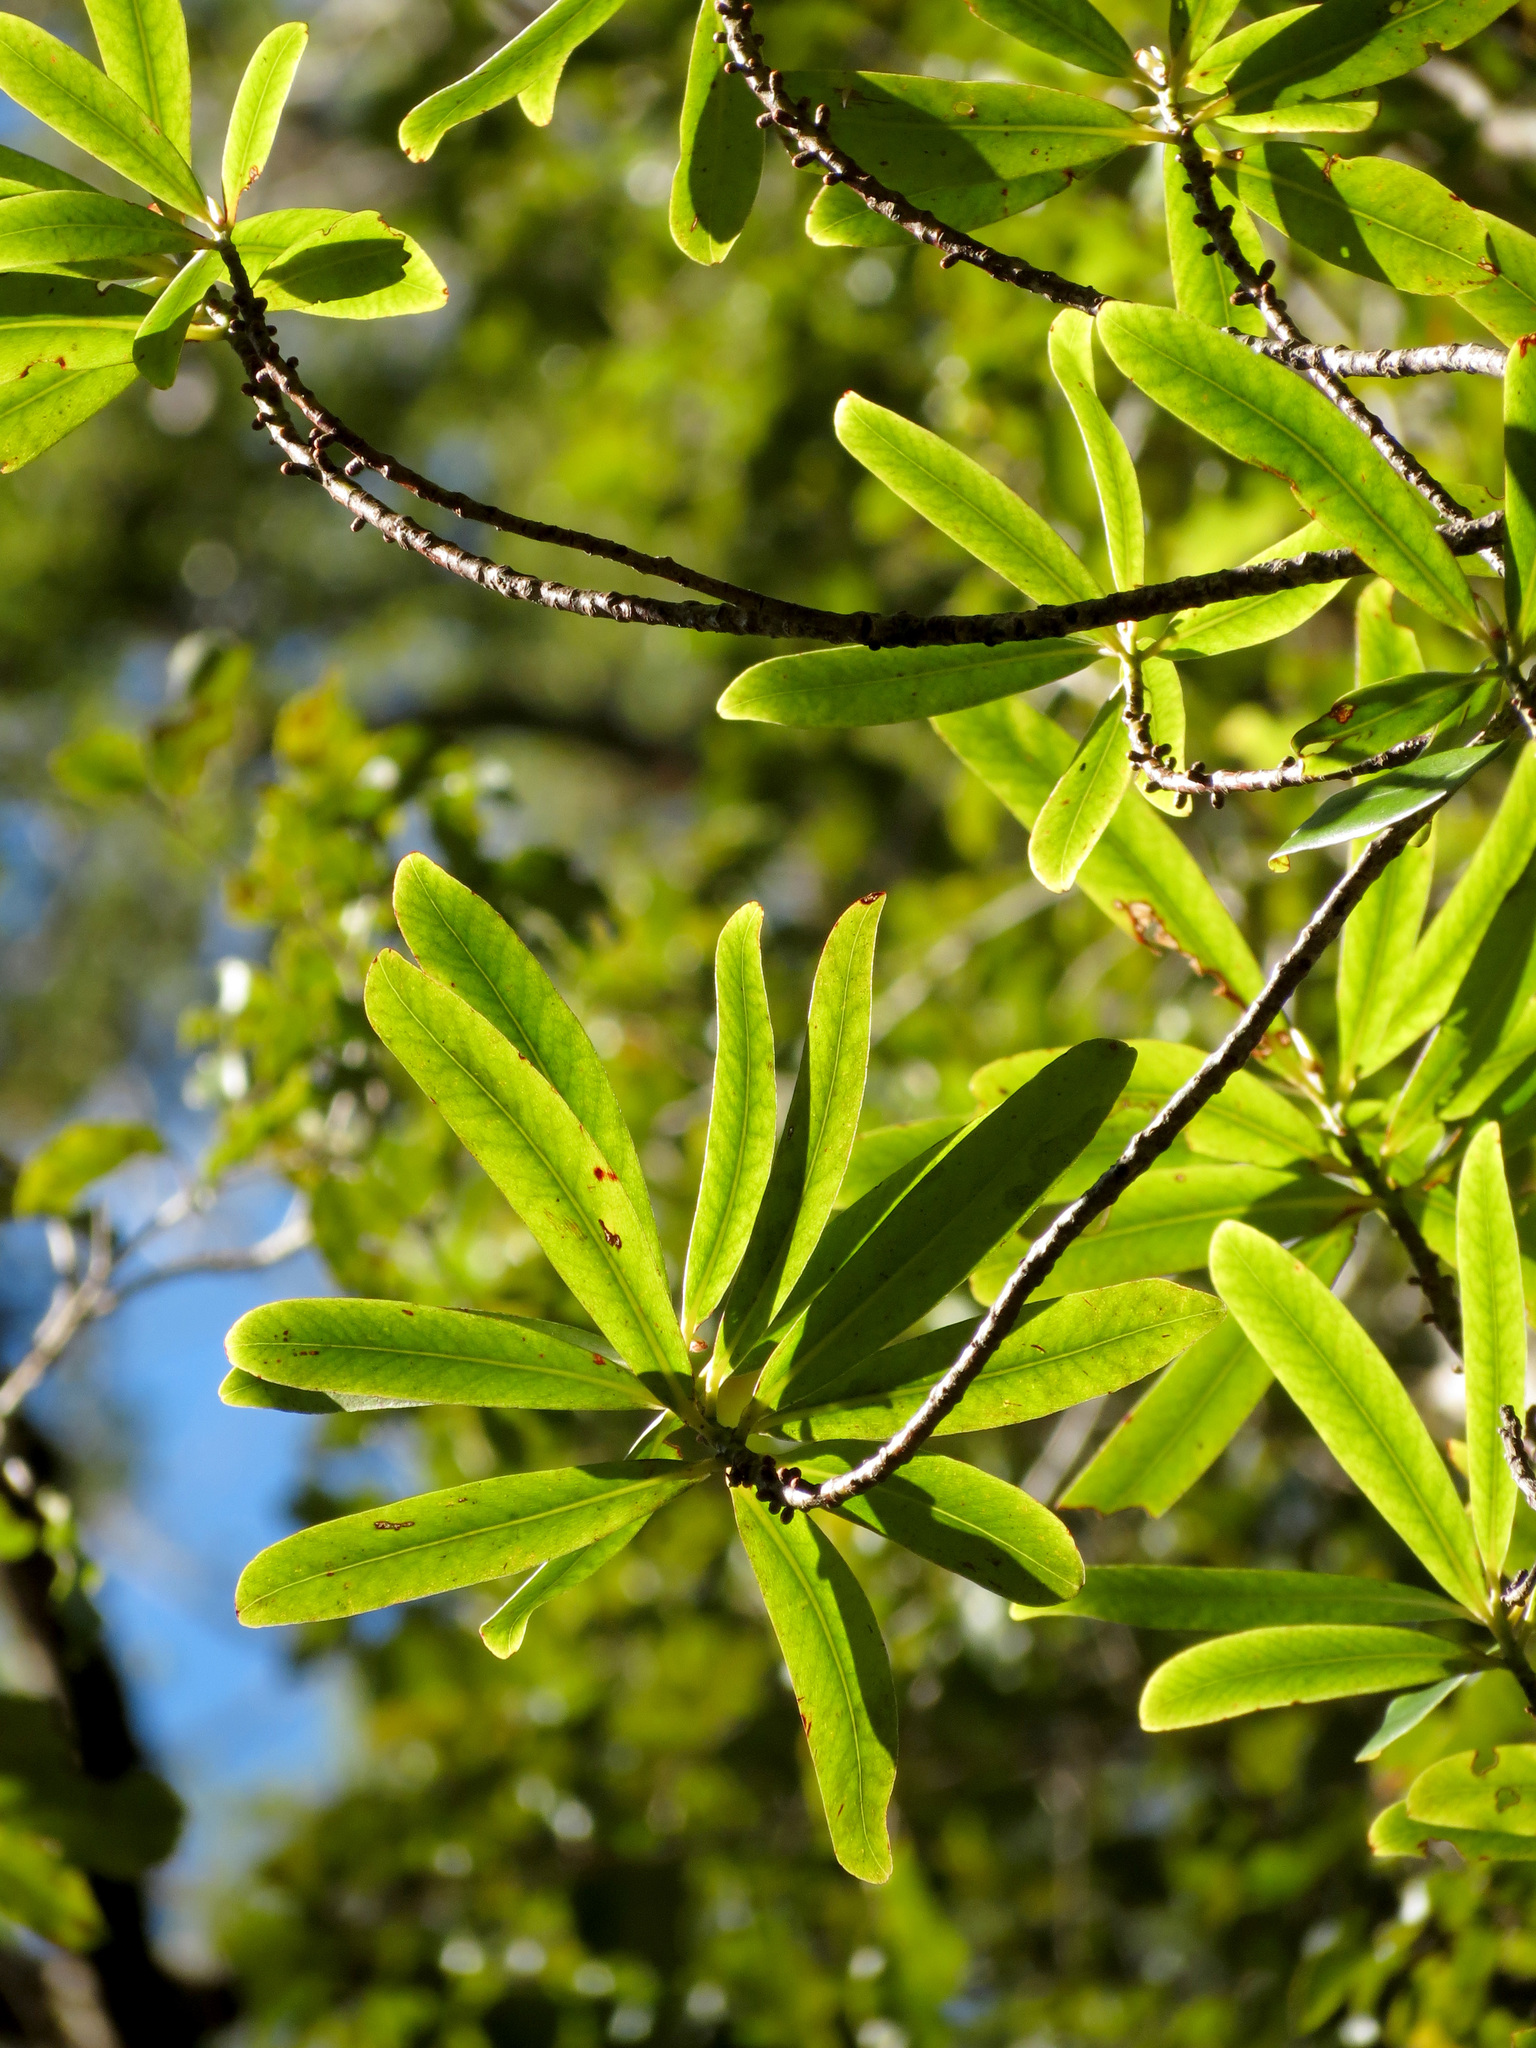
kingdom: Plantae
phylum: Tracheophyta
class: Magnoliopsida
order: Ericales
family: Primulaceae
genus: Myrsine
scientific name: Myrsine salicina
